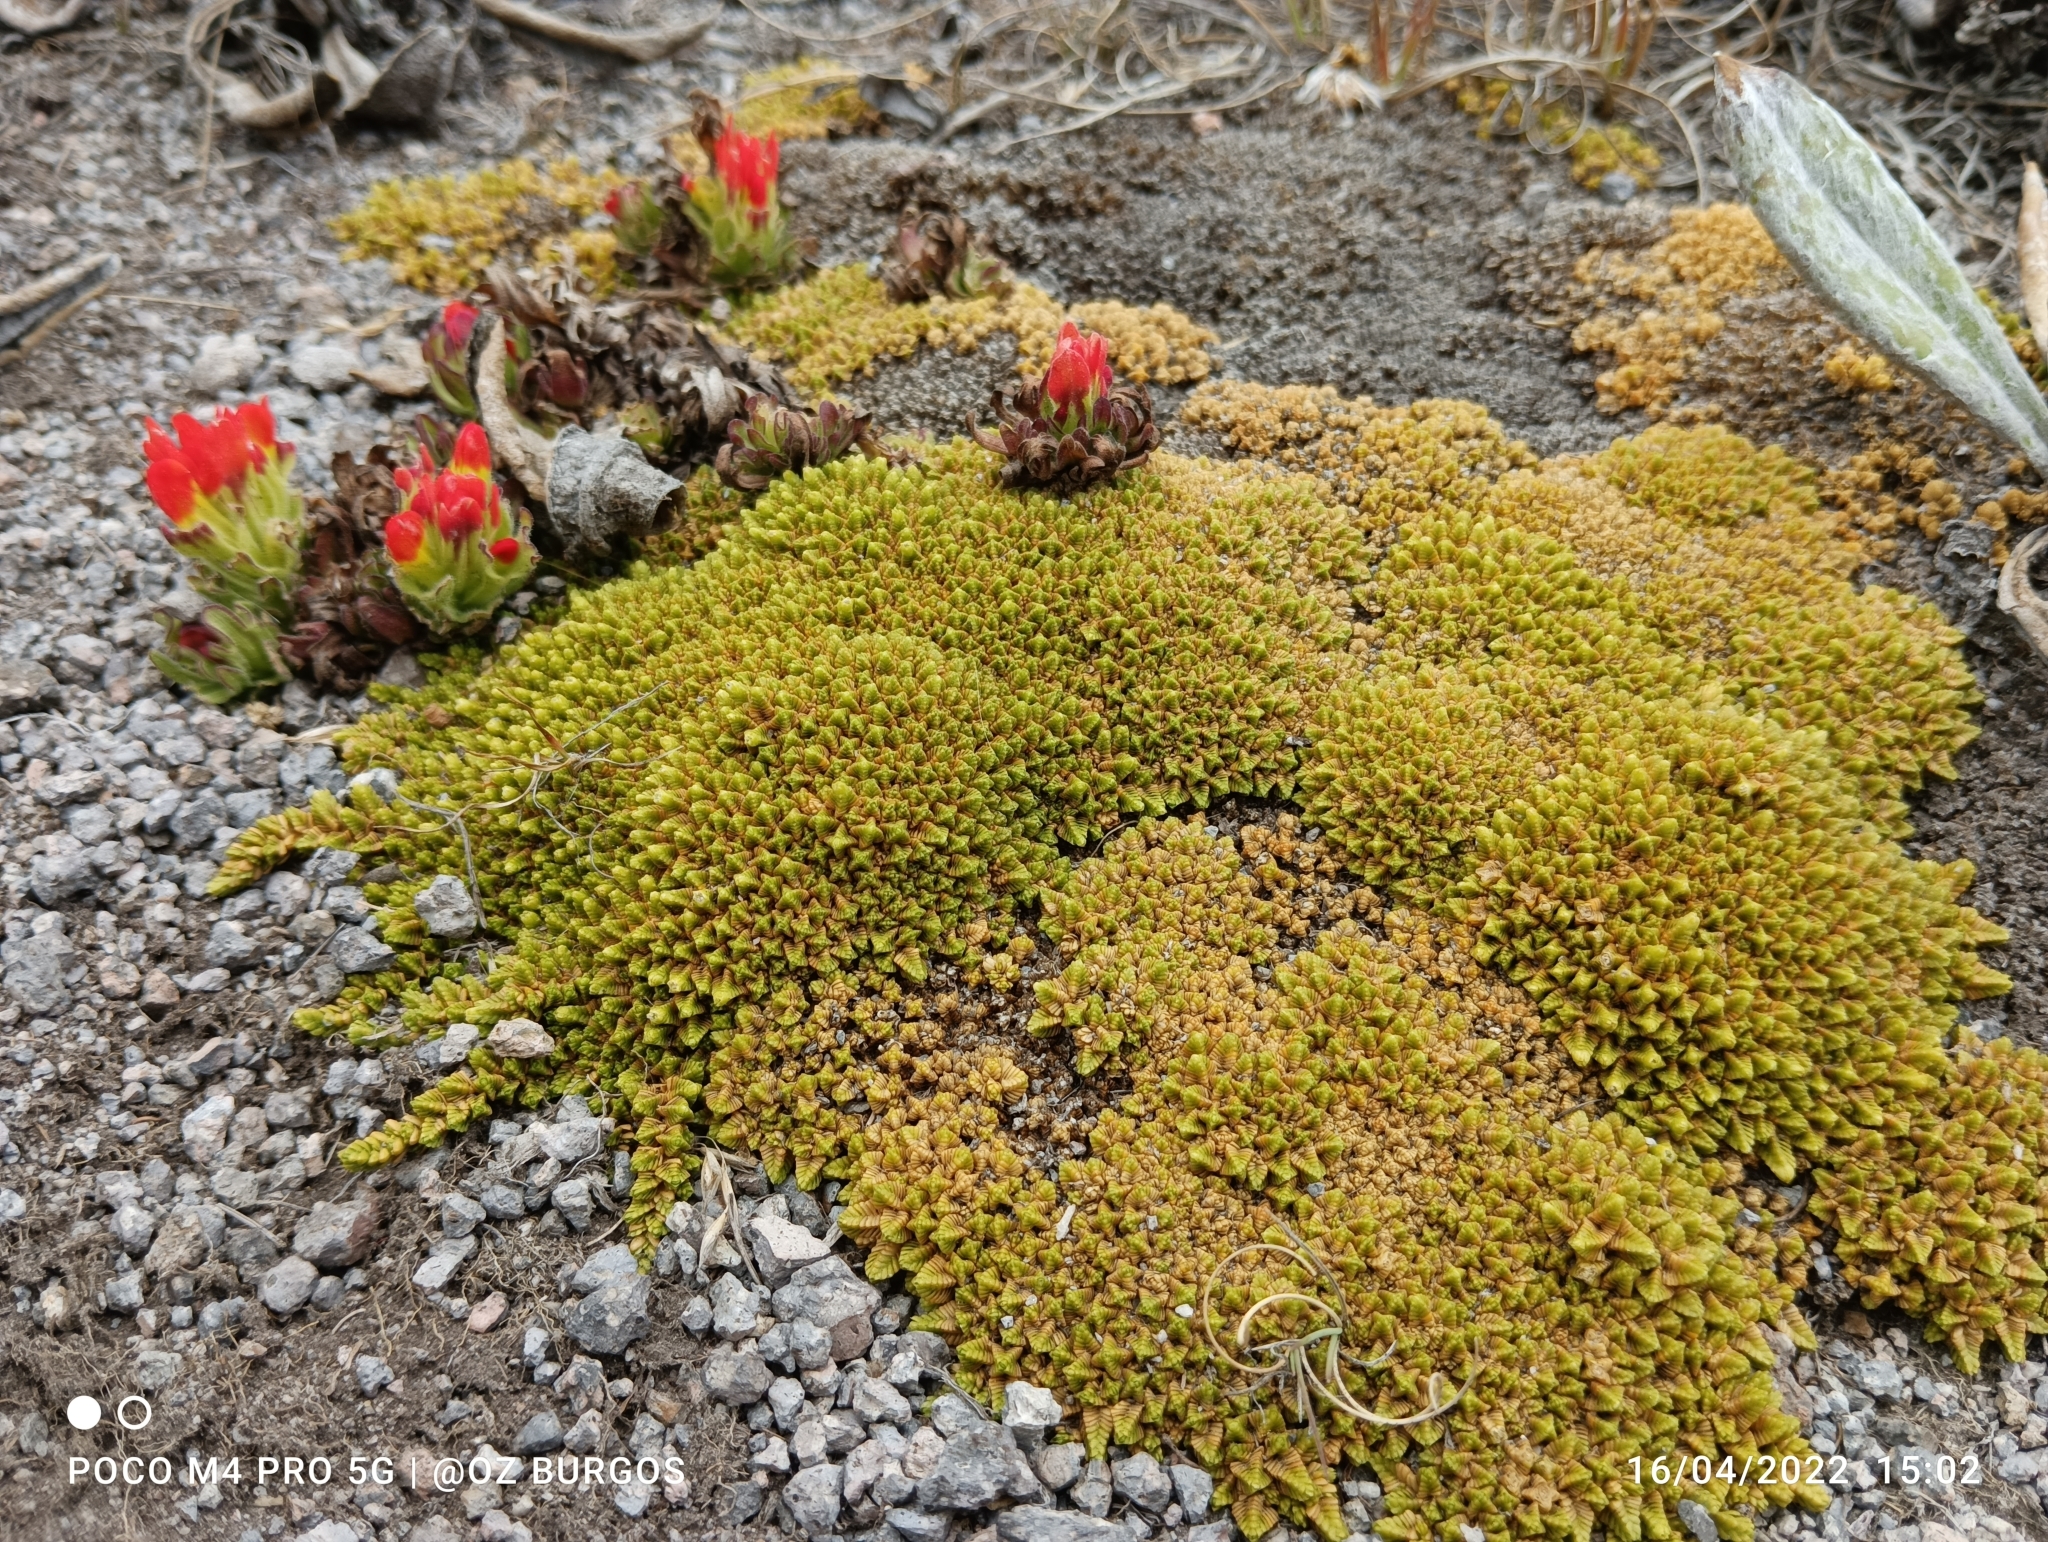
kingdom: Plantae
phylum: Tracheophyta
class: Magnoliopsida
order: Caryophyllales
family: Caryophyllaceae
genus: Arenaria
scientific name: Arenaria bryoides
